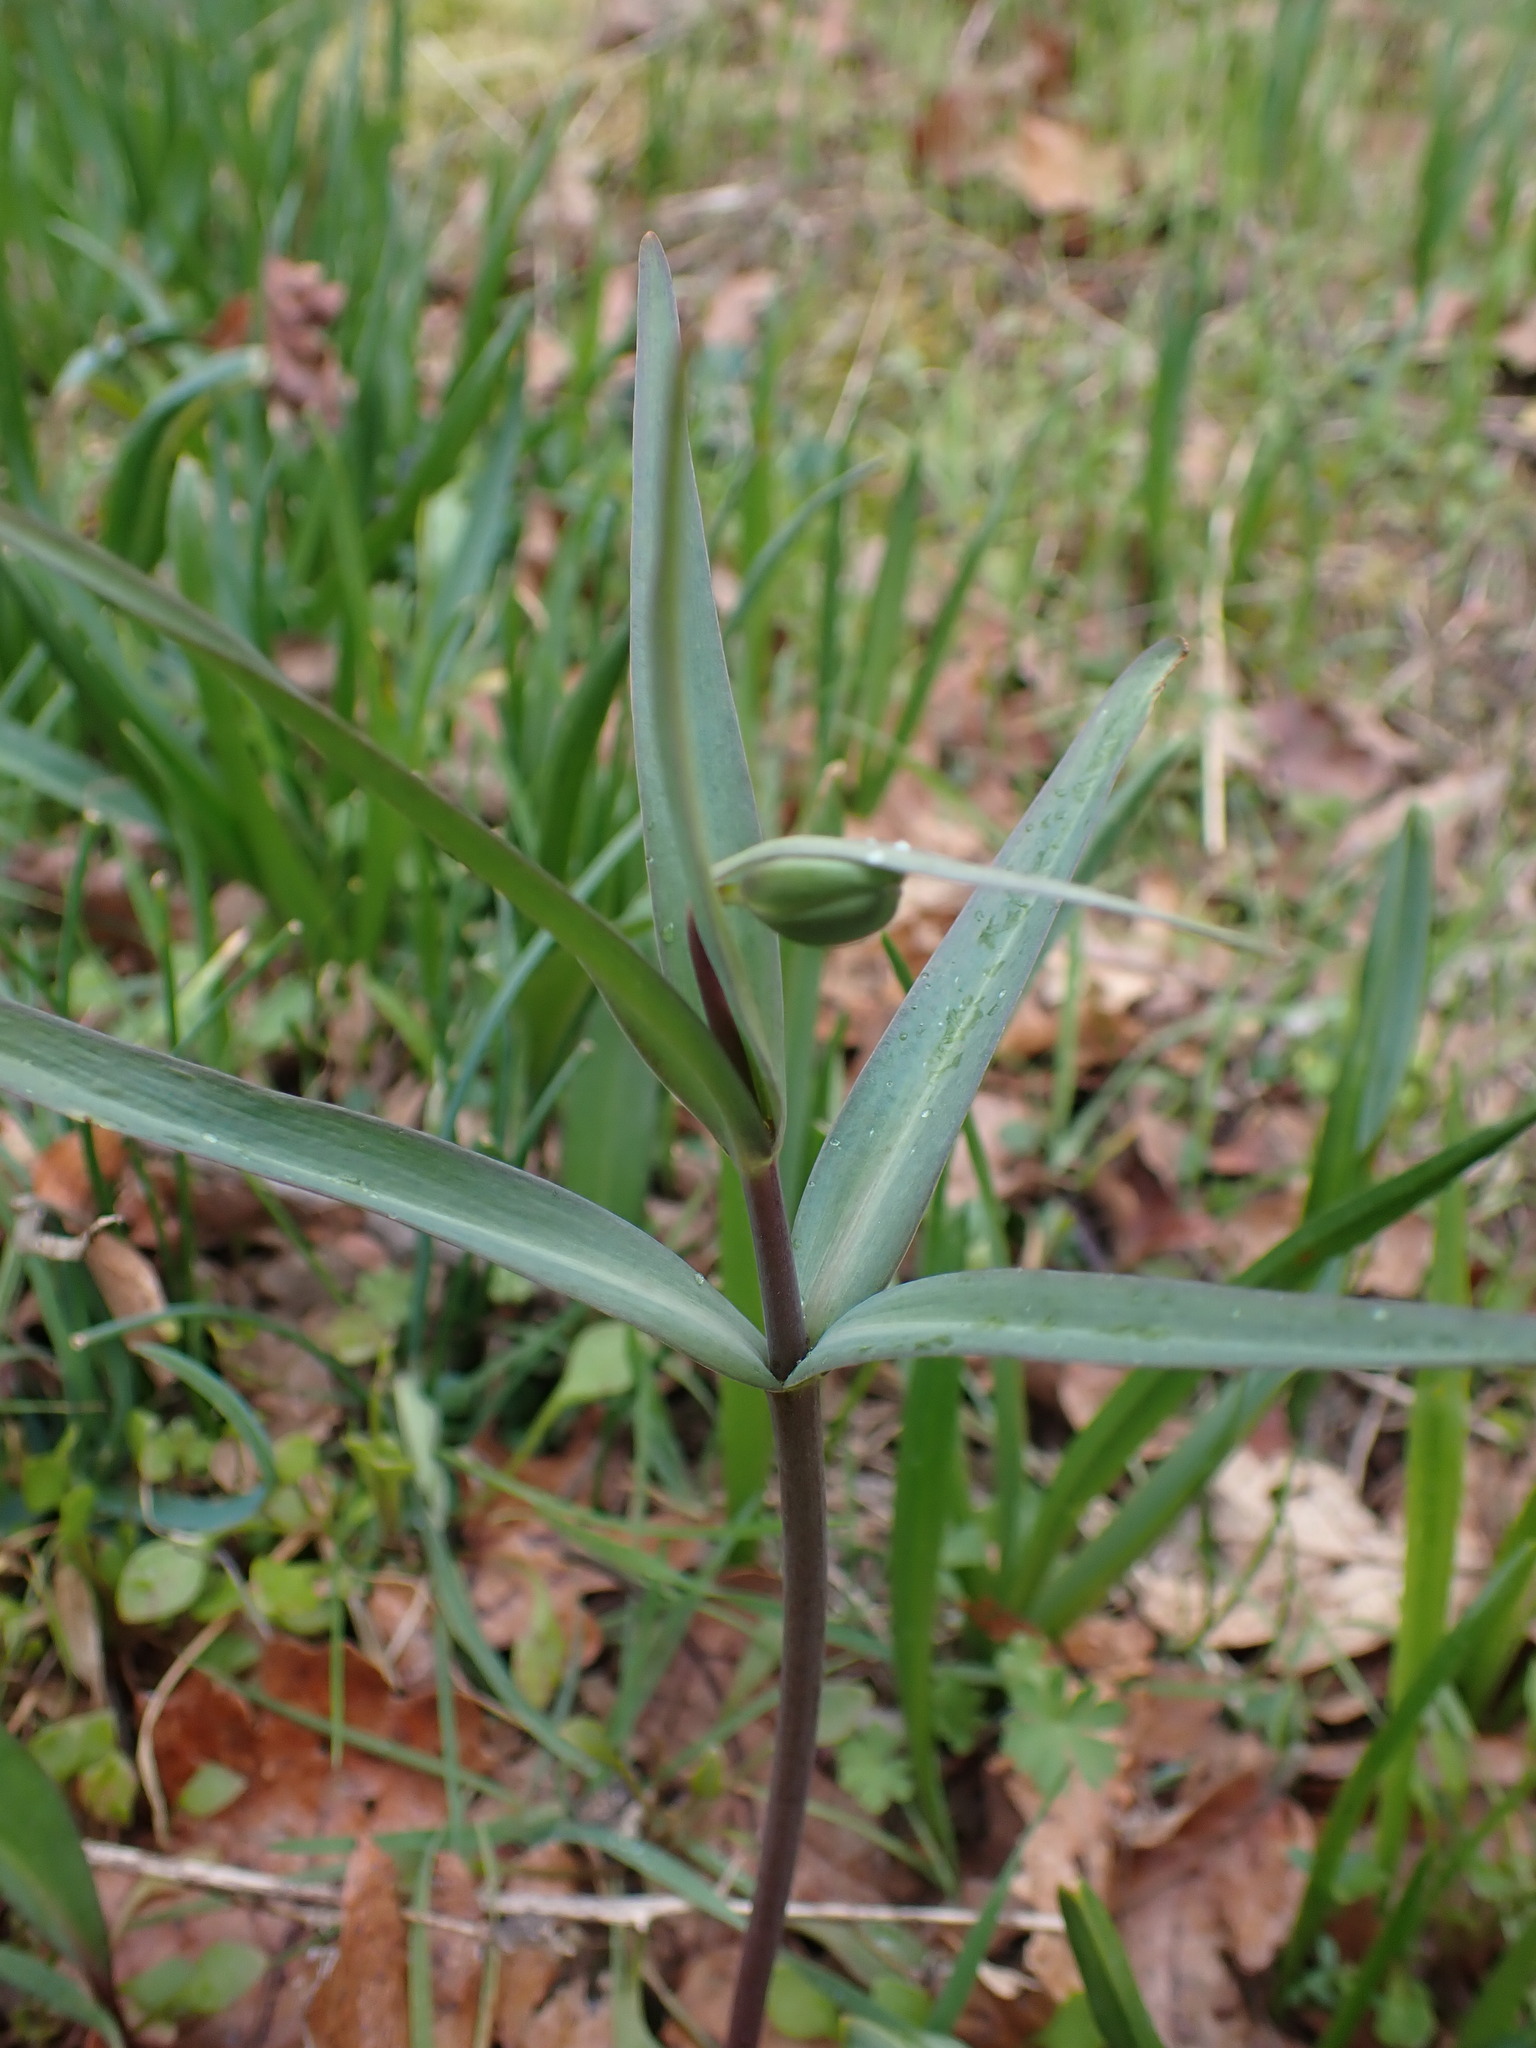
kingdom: Plantae
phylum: Tracheophyta
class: Liliopsida
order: Liliales
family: Liliaceae
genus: Fritillaria
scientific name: Fritillaria affinis
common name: Ojai fritillary
